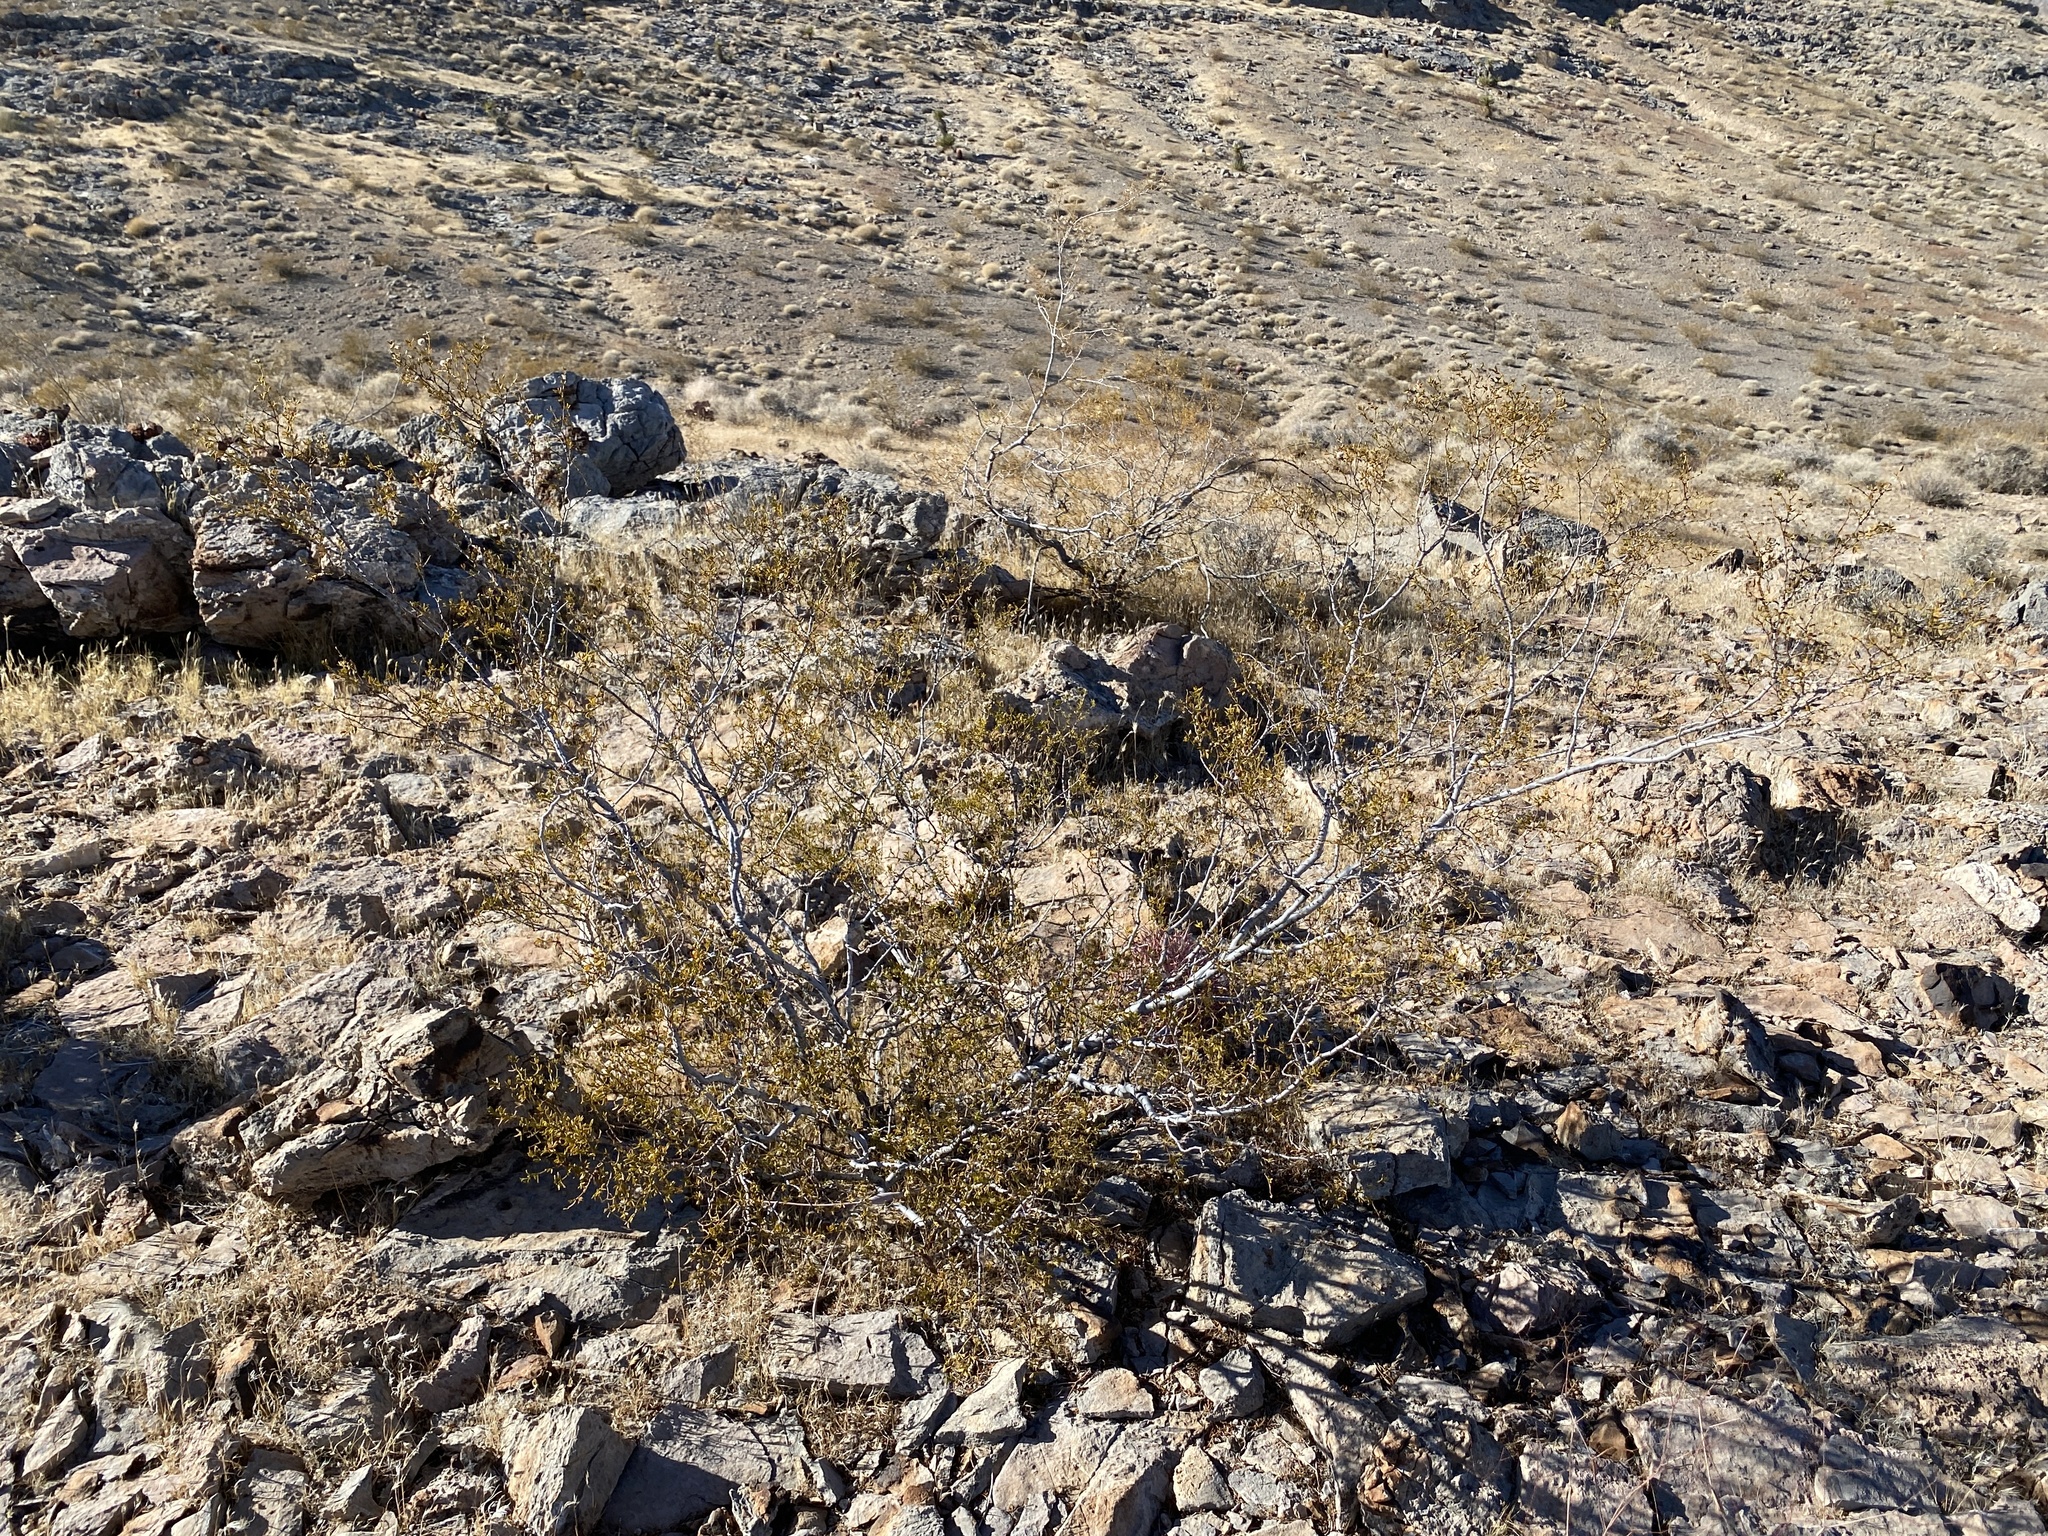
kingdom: Plantae
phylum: Tracheophyta
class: Magnoliopsida
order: Zygophyllales
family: Zygophyllaceae
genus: Larrea
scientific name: Larrea tridentata
